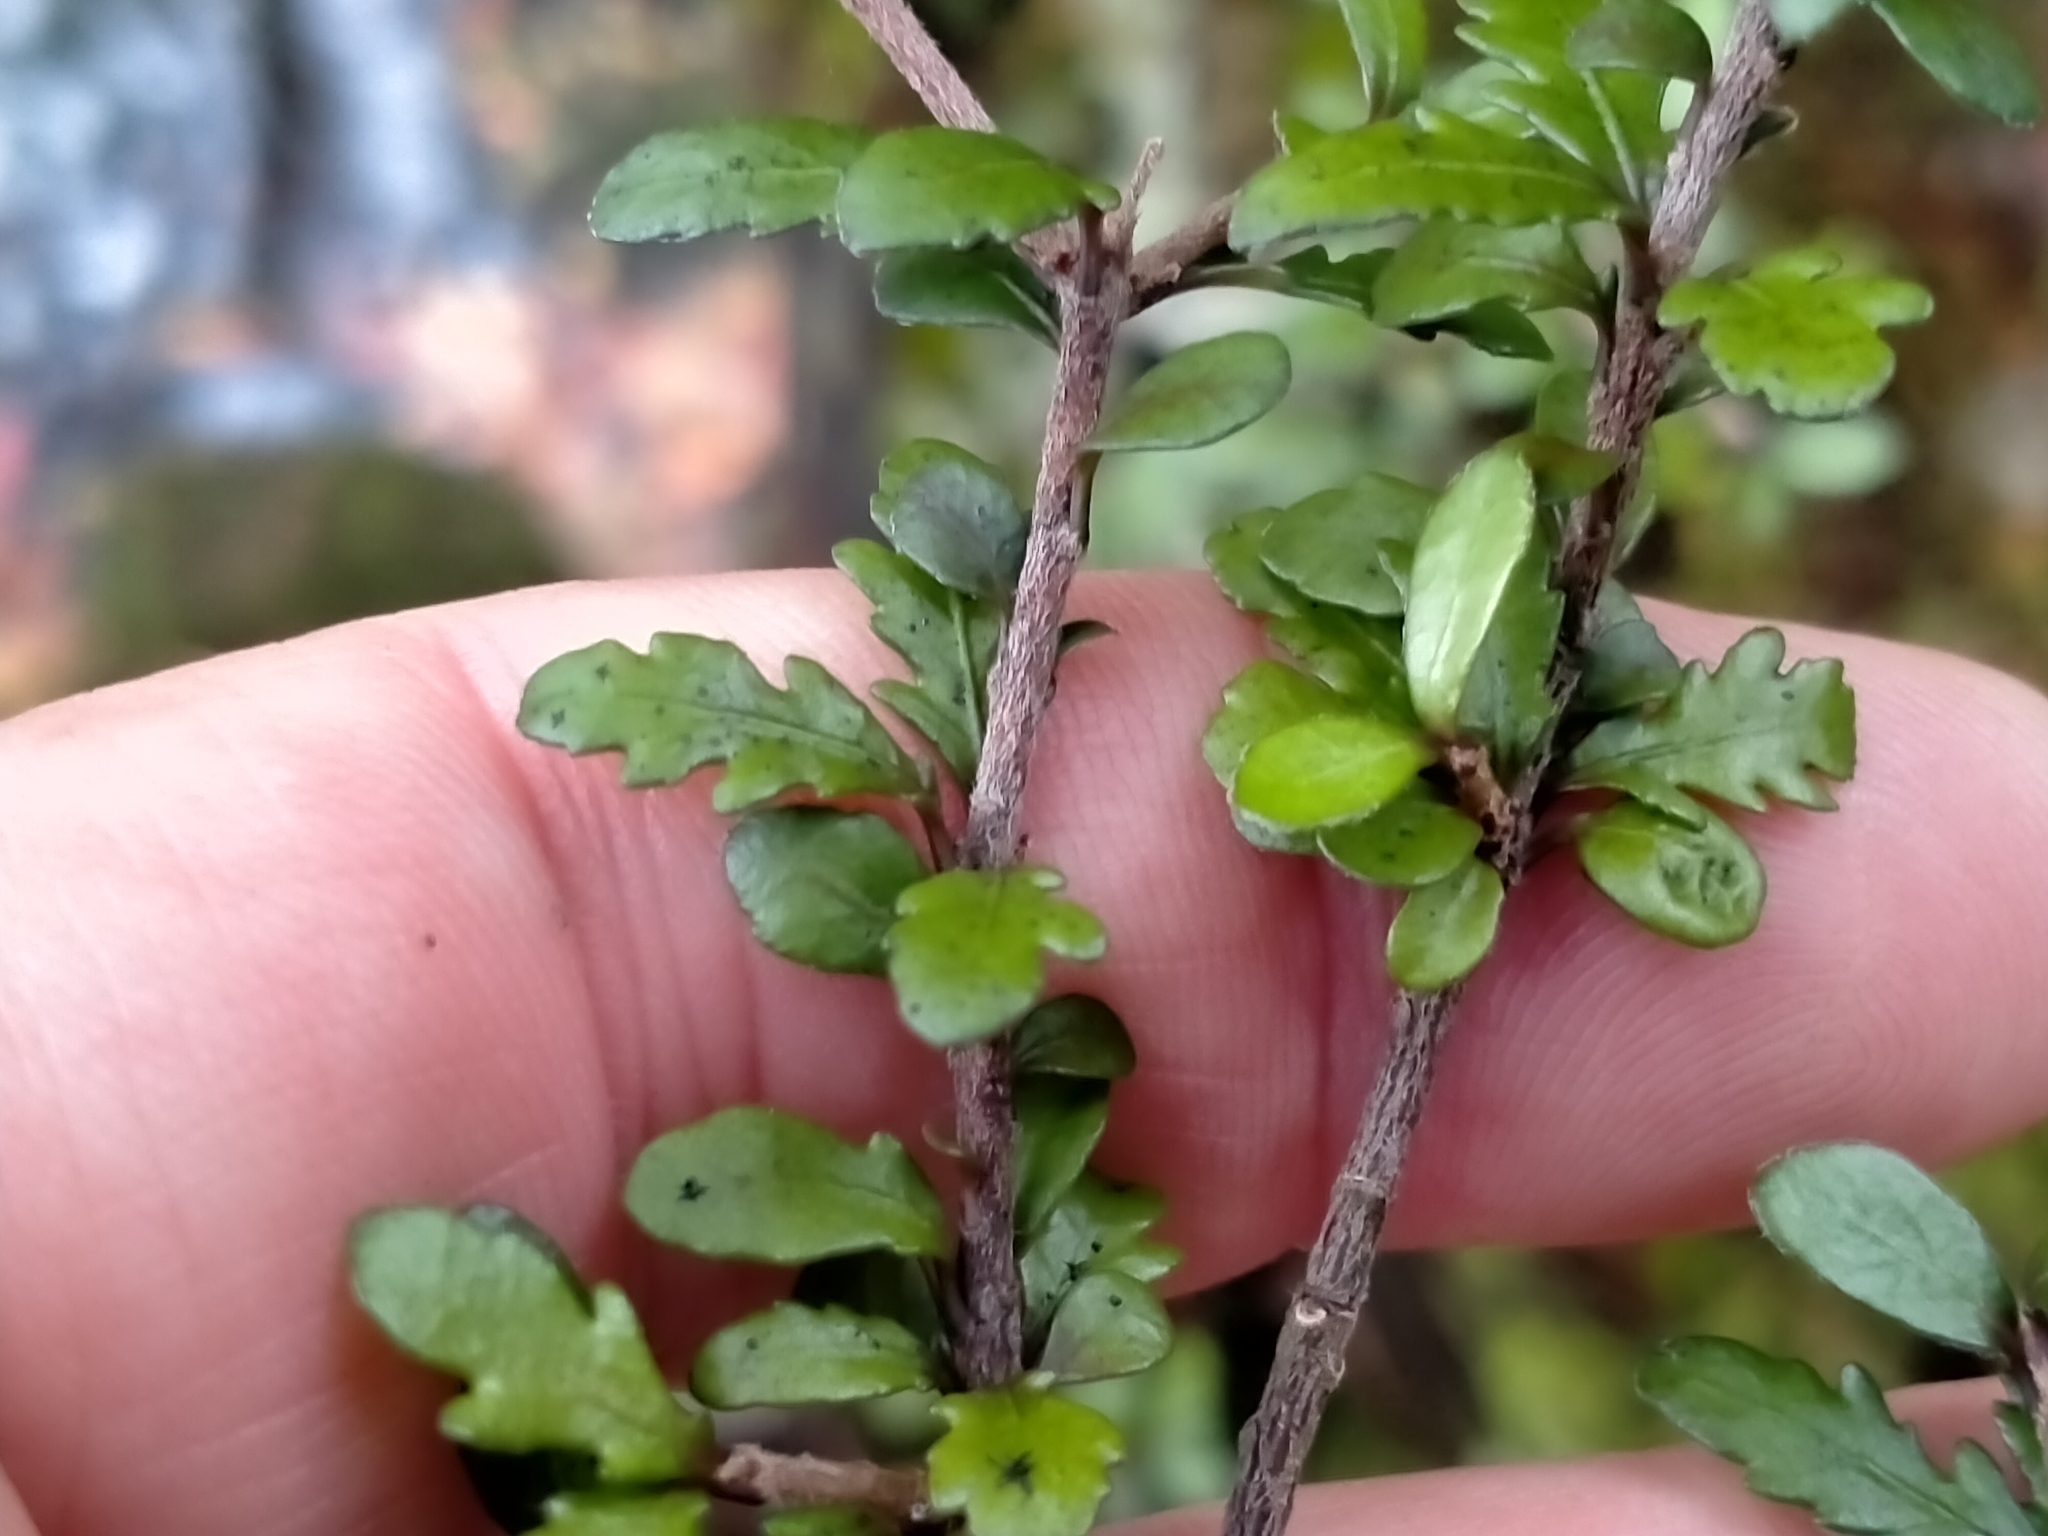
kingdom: Plantae
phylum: Tracheophyta
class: Magnoliopsida
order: Apiales
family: Pittosporaceae
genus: Pittosporum
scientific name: Pittosporum divaricatum
